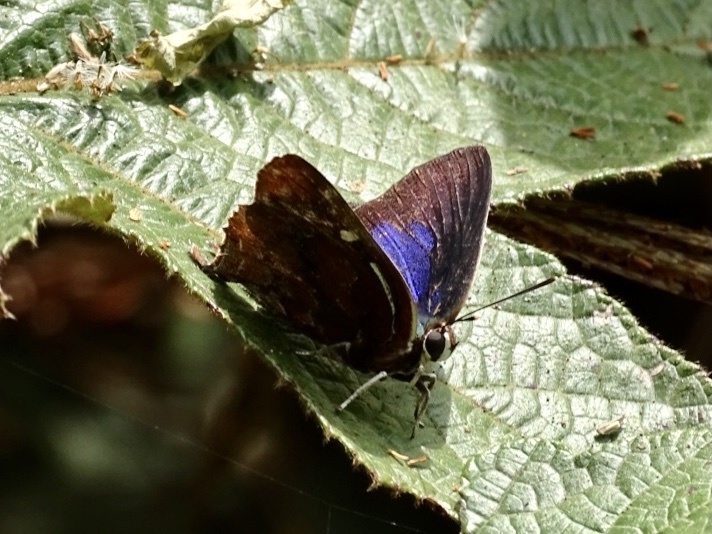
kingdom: Animalia
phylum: Arthropoda
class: Insecta
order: Lepidoptera
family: Lycaenidae
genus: Iraota
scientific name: Iraota timoleon
